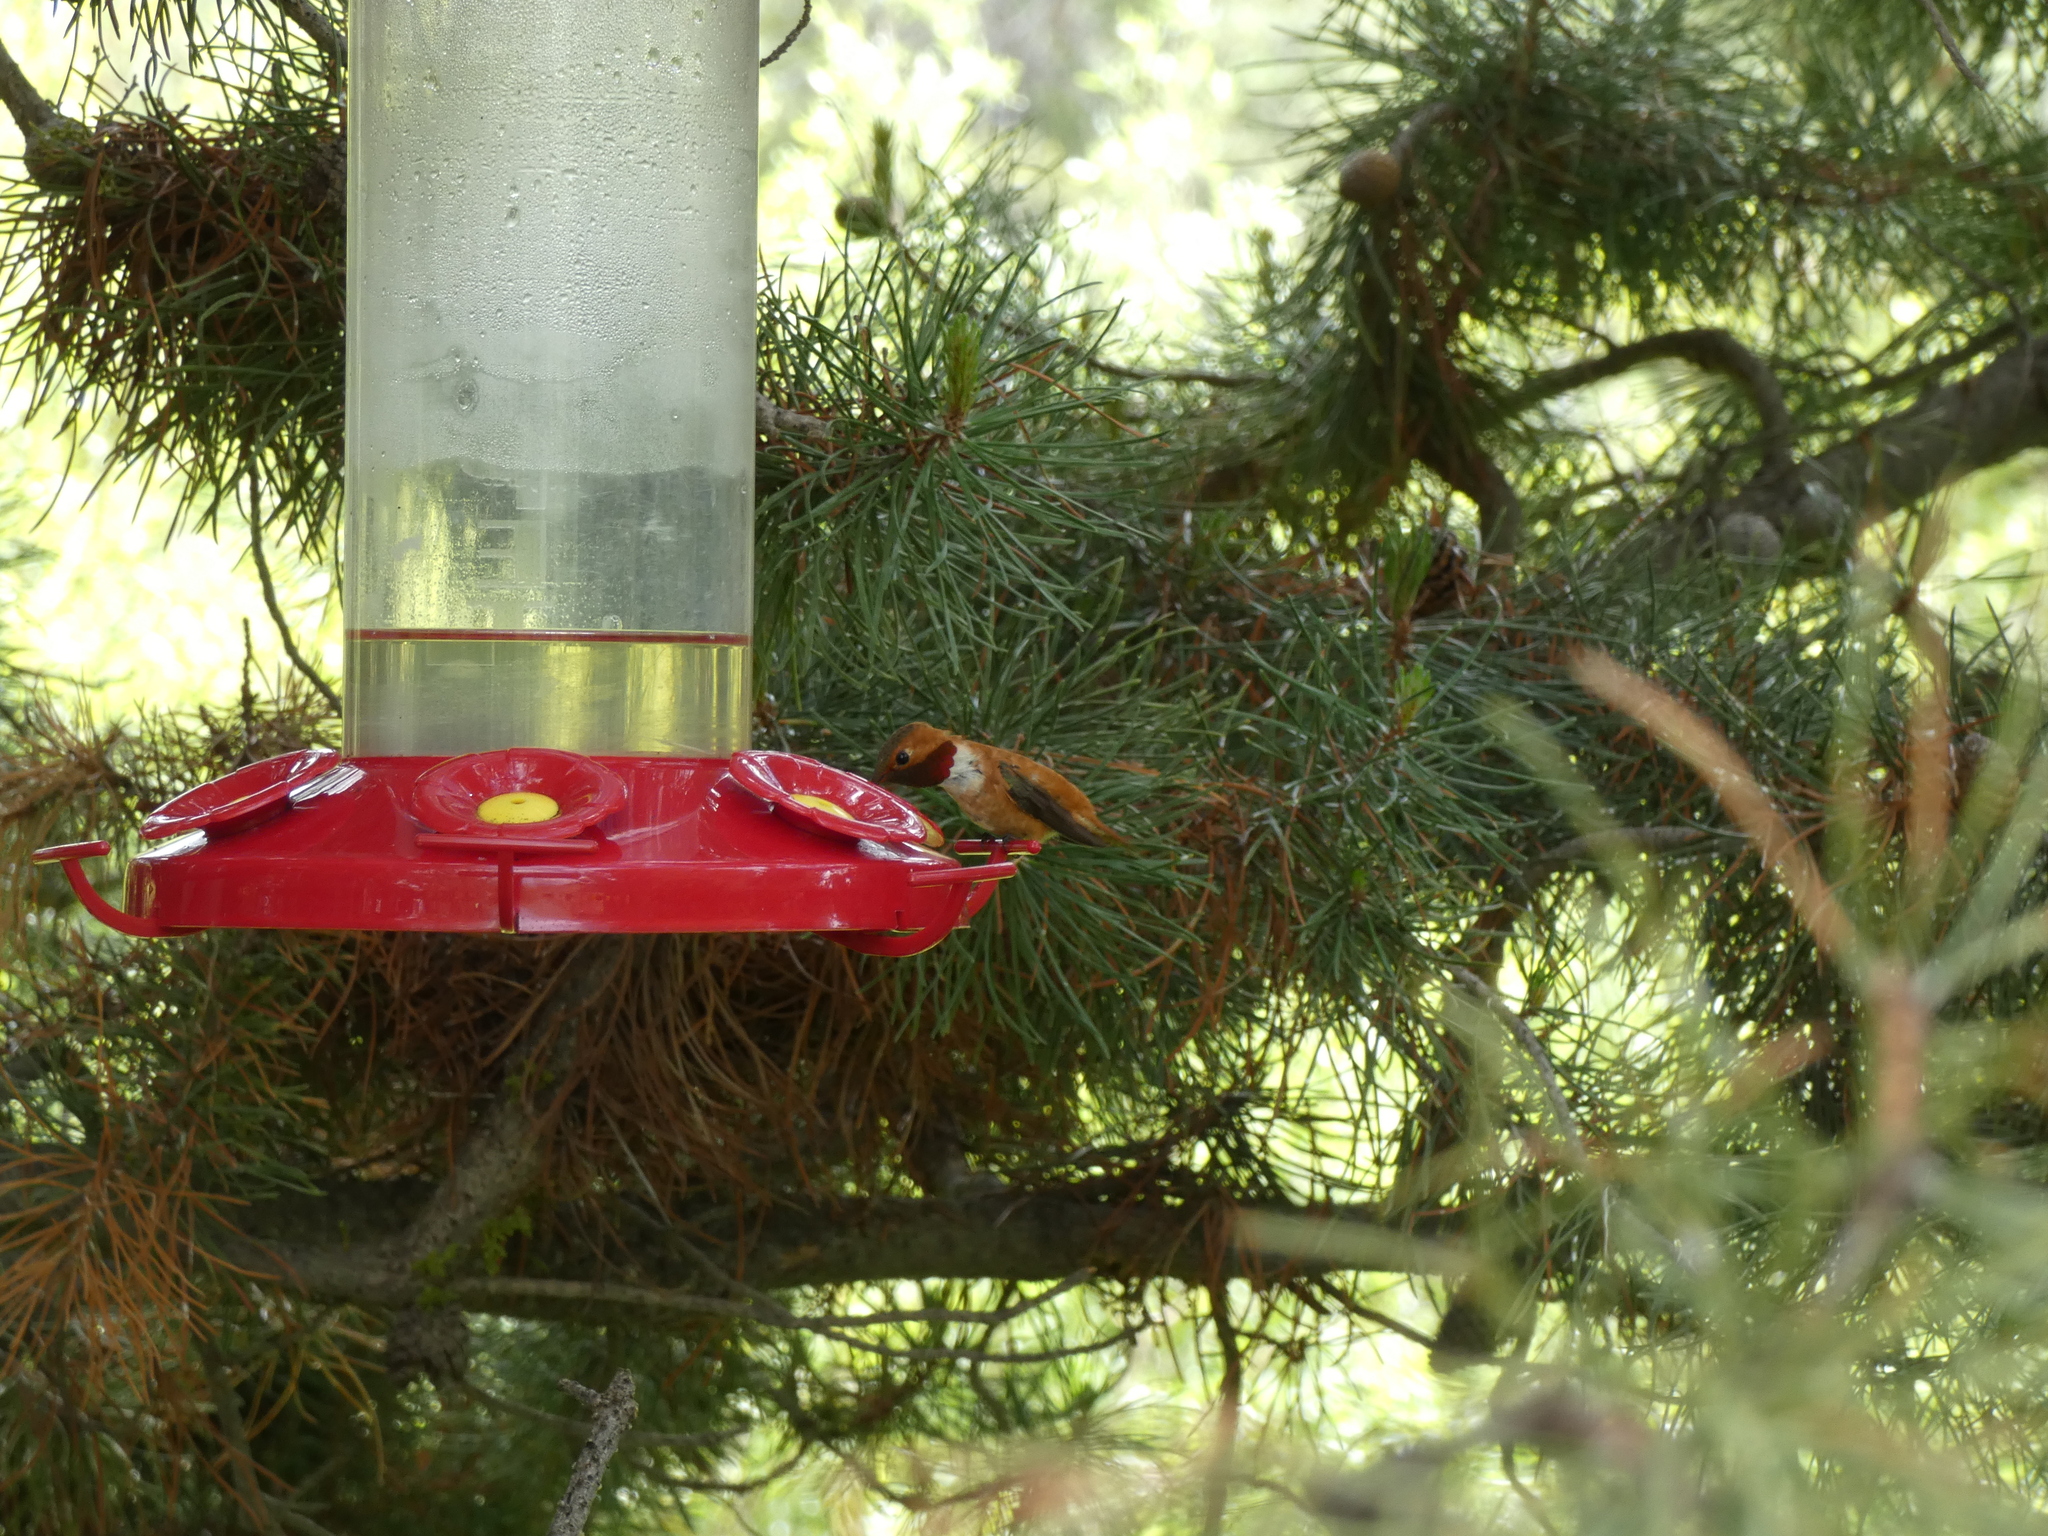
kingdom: Animalia
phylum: Chordata
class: Aves
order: Apodiformes
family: Trochilidae
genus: Selasphorus
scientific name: Selasphorus rufus
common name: Rufous hummingbird
